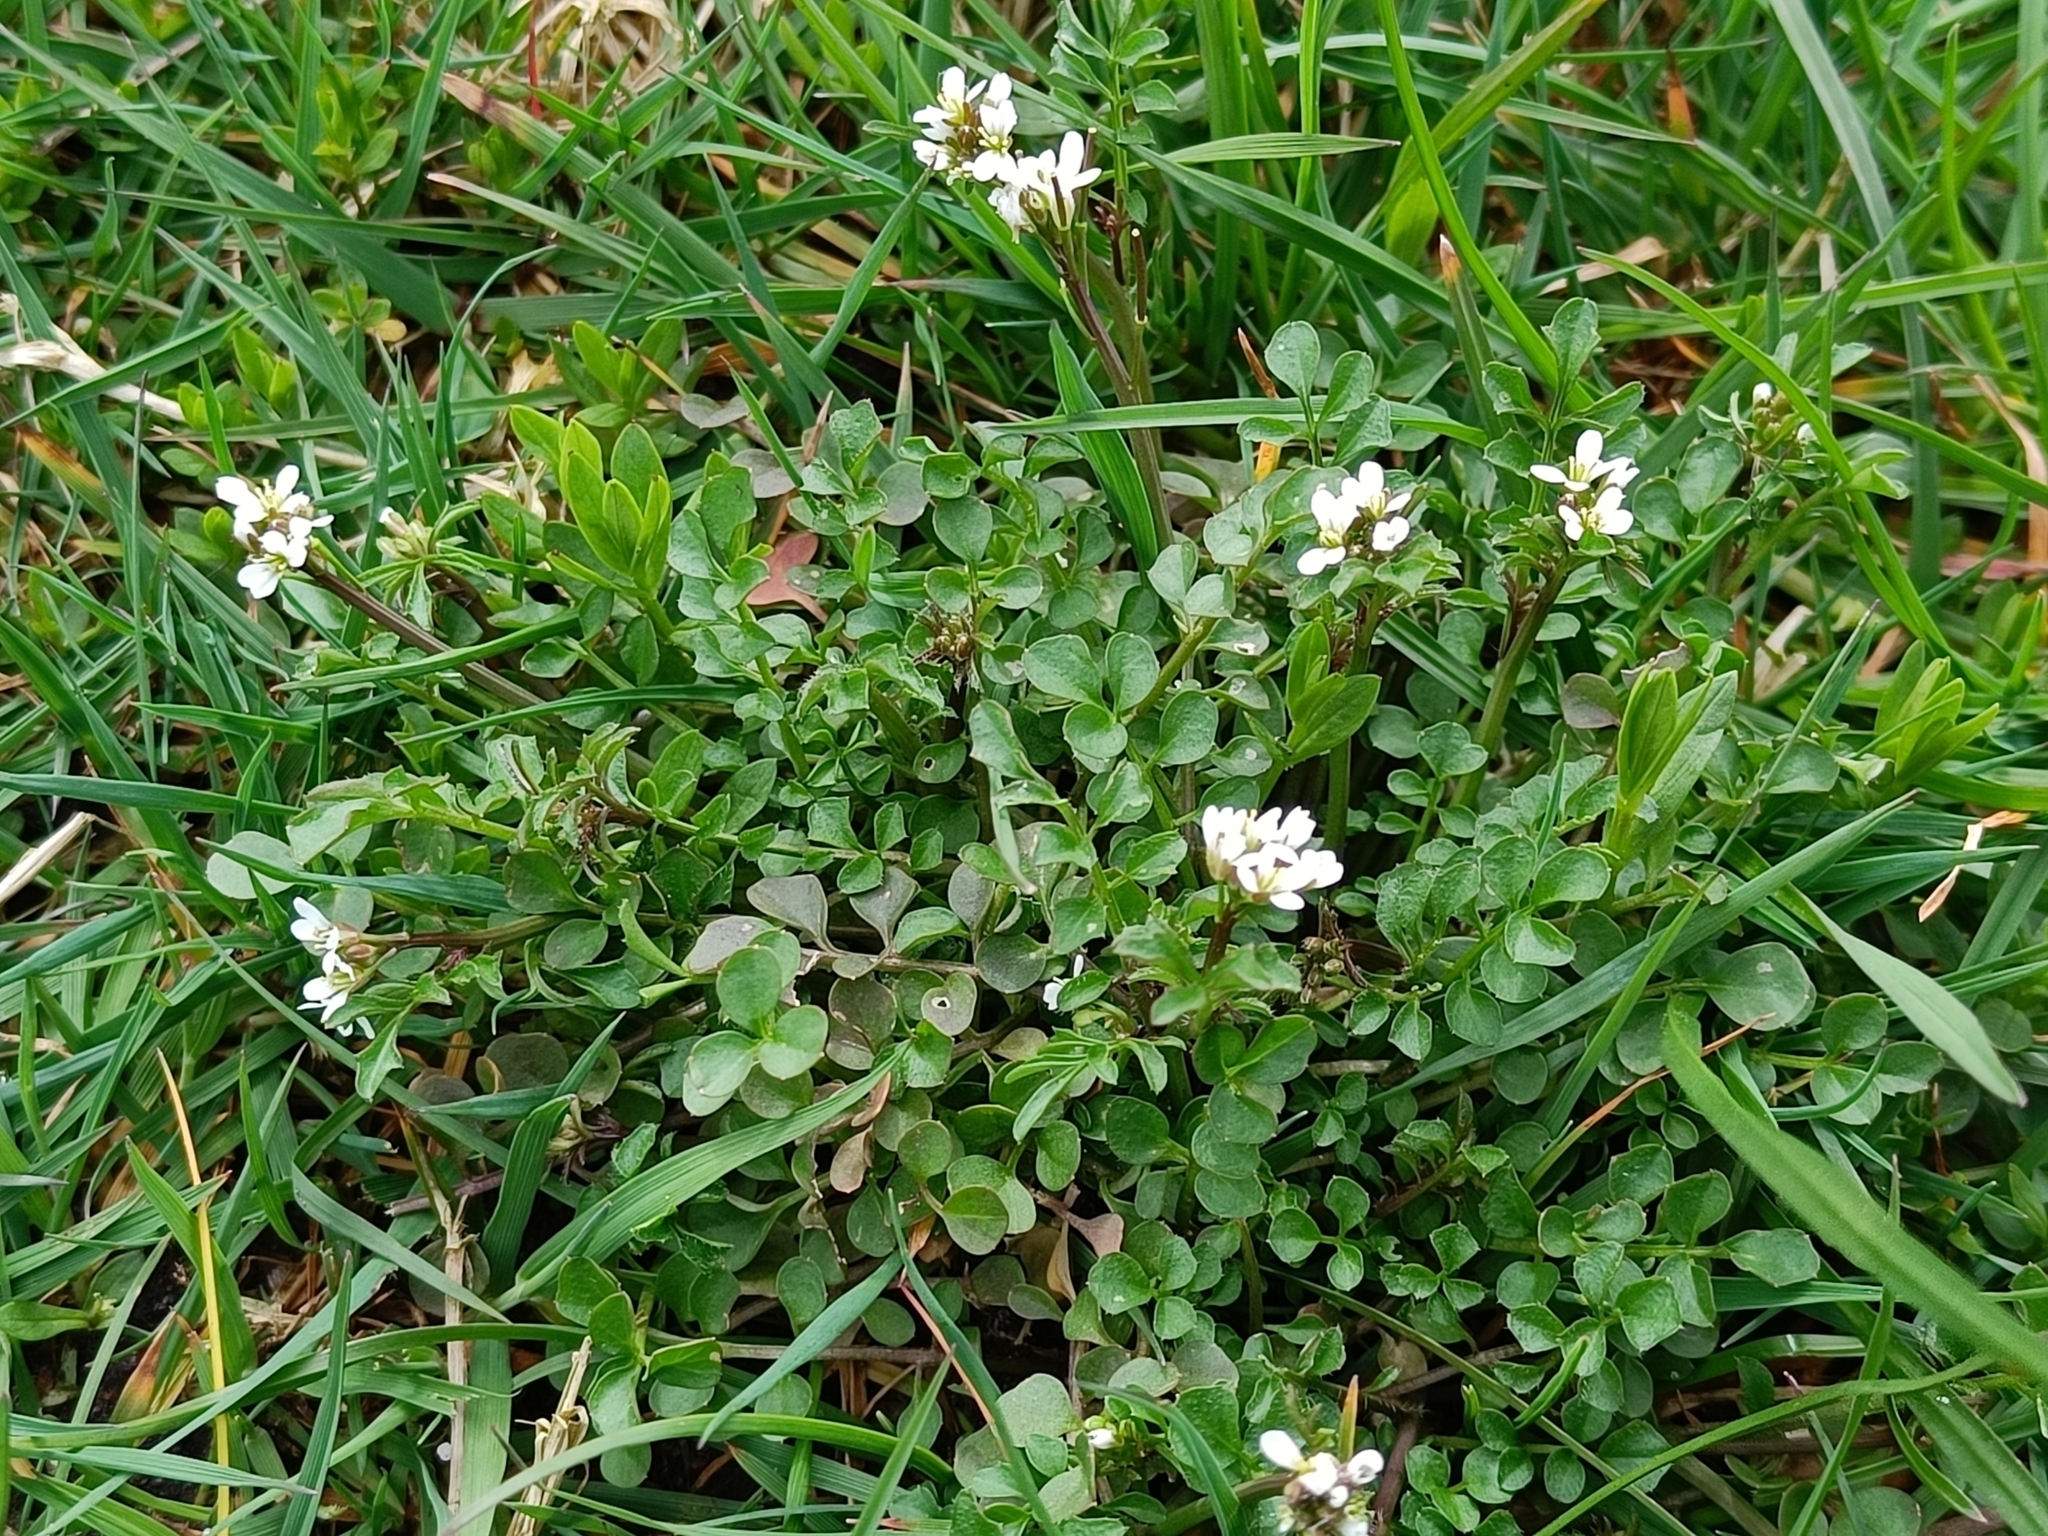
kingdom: Plantae
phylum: Tracheophyta
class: Magnoliopsida
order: Brassicales
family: Brassicaceae
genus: Cardamine
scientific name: Cardamine hirsuta
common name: Hairy bittercress
